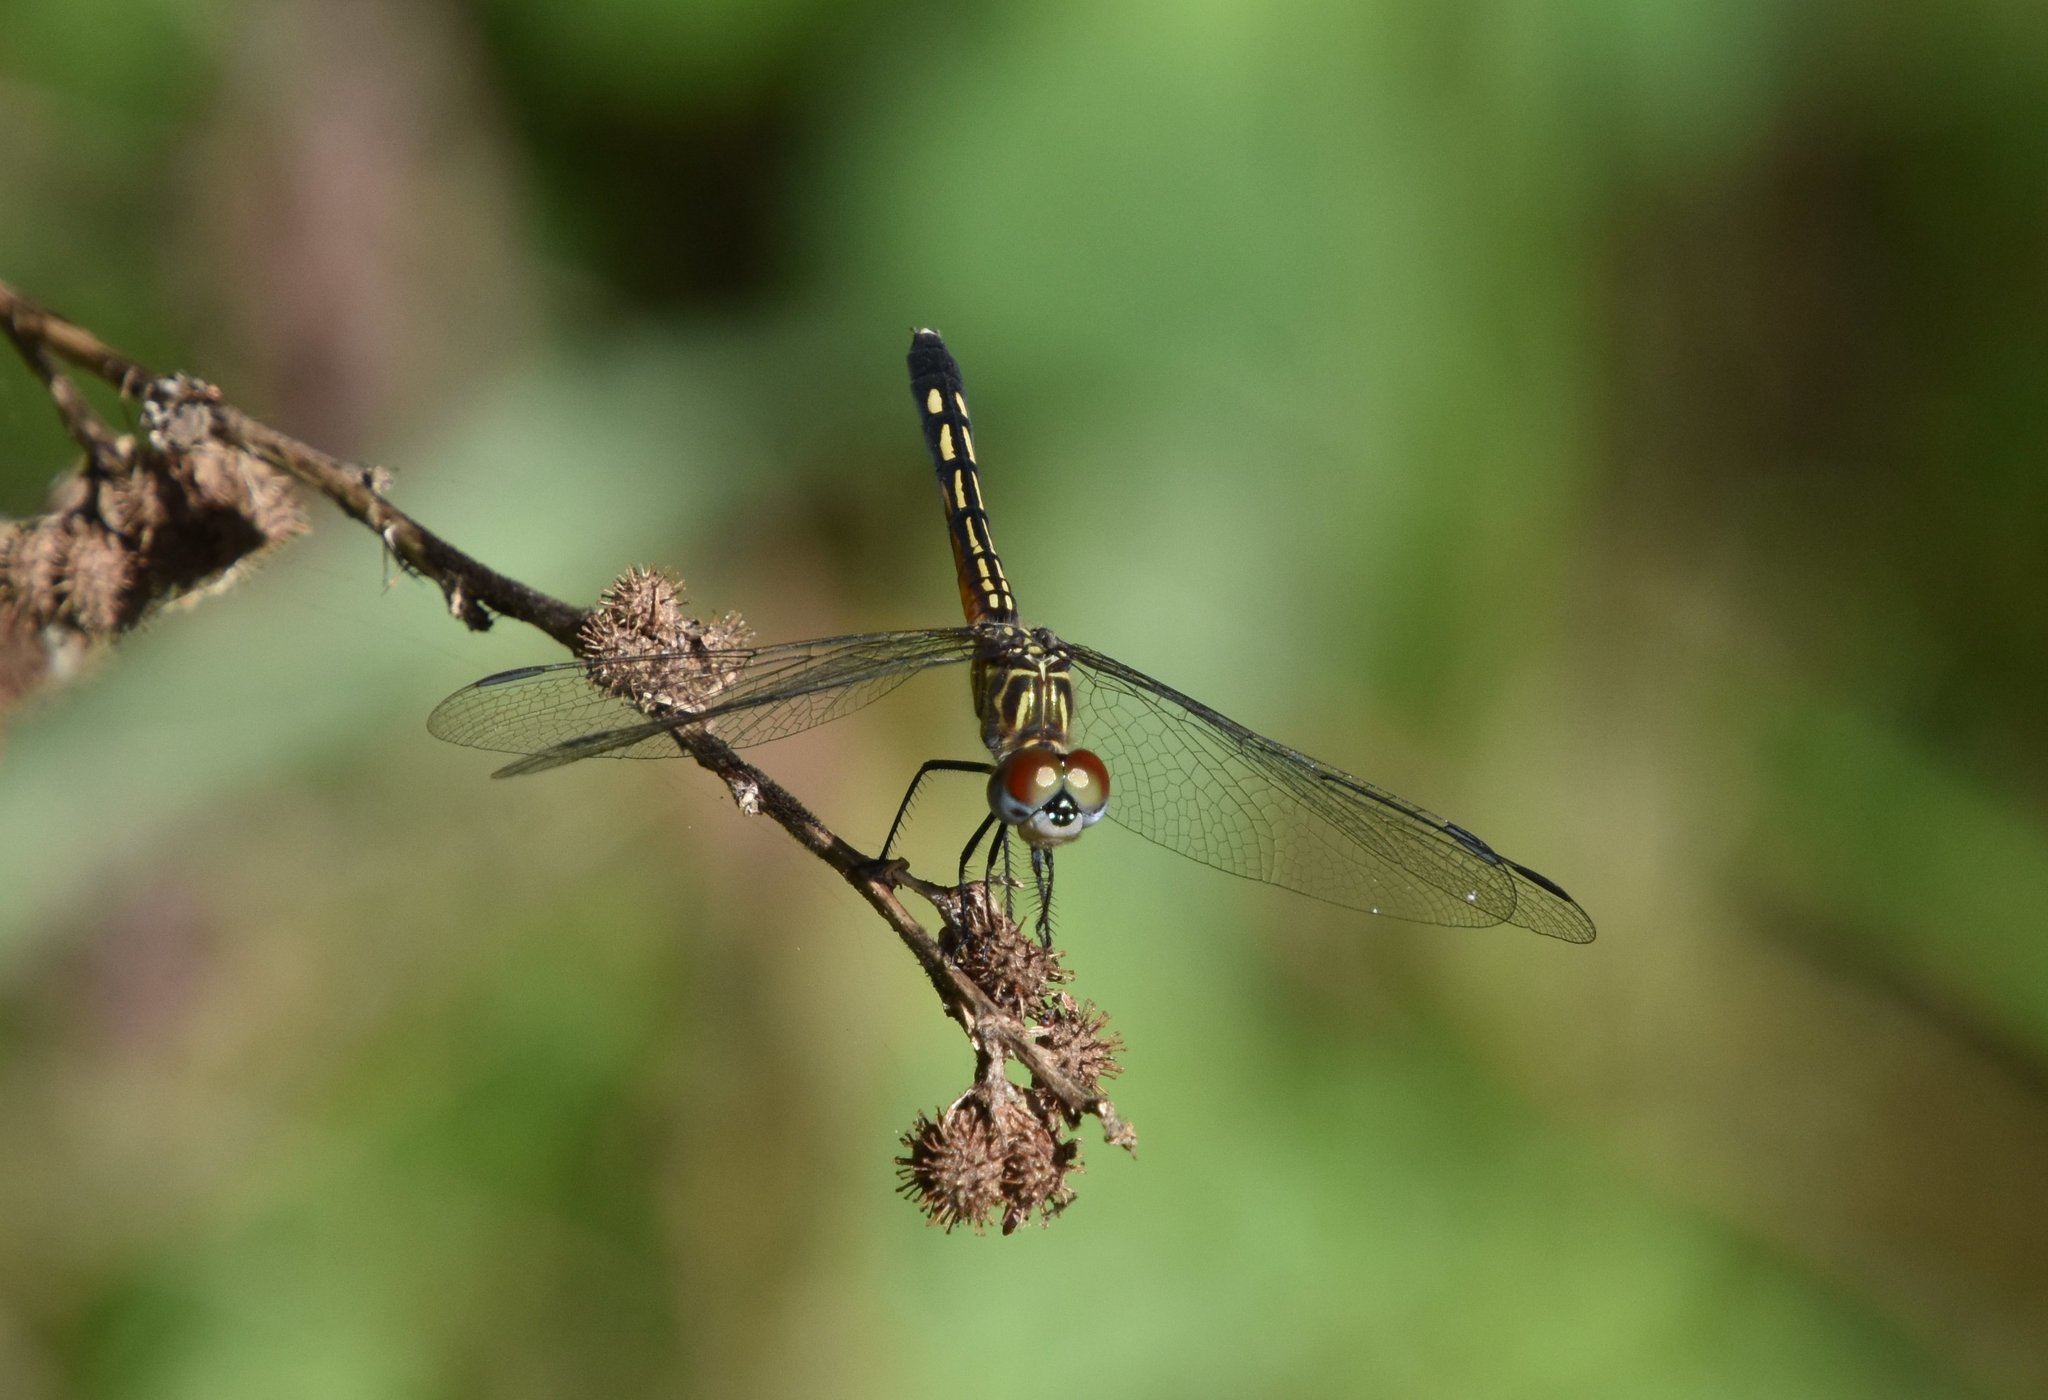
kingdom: Animalia
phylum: Arthropoda
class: Insecta
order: Odonata
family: Libellulidae
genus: Pachydiplax
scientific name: Pachydiplax longipennis
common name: Blue dasher
